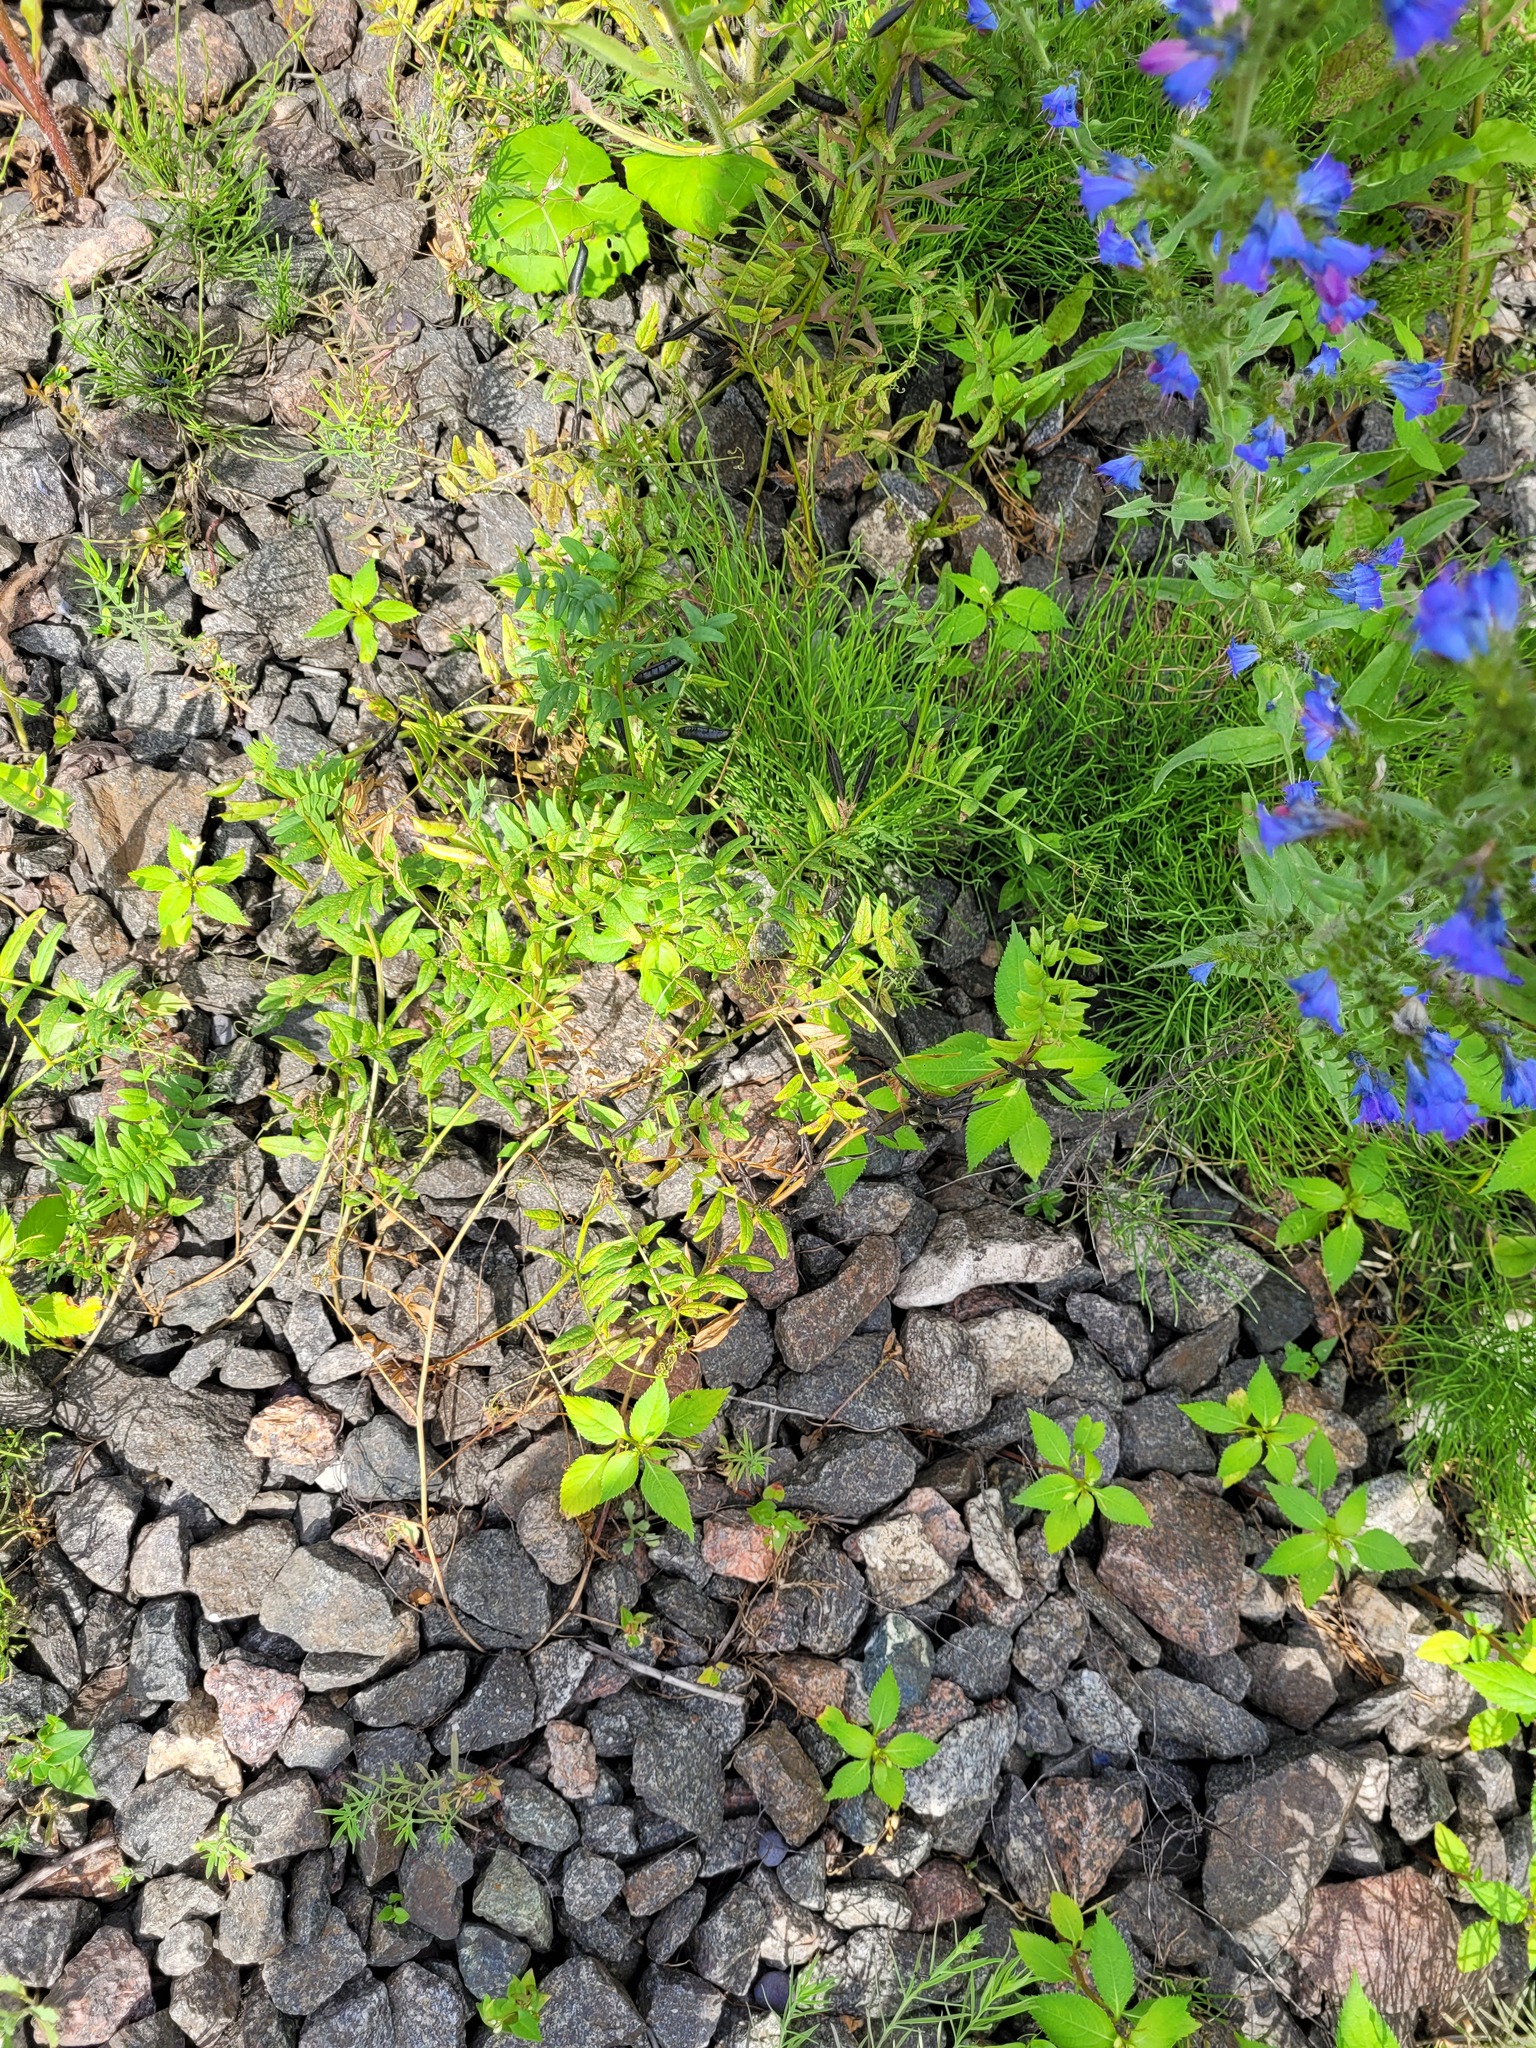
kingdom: Plantae
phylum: Tracheophyta
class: Magnoliopsida
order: Fabales
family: Fabaceae
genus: Vicia
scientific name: Vicia sepium
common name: Bush vetch
